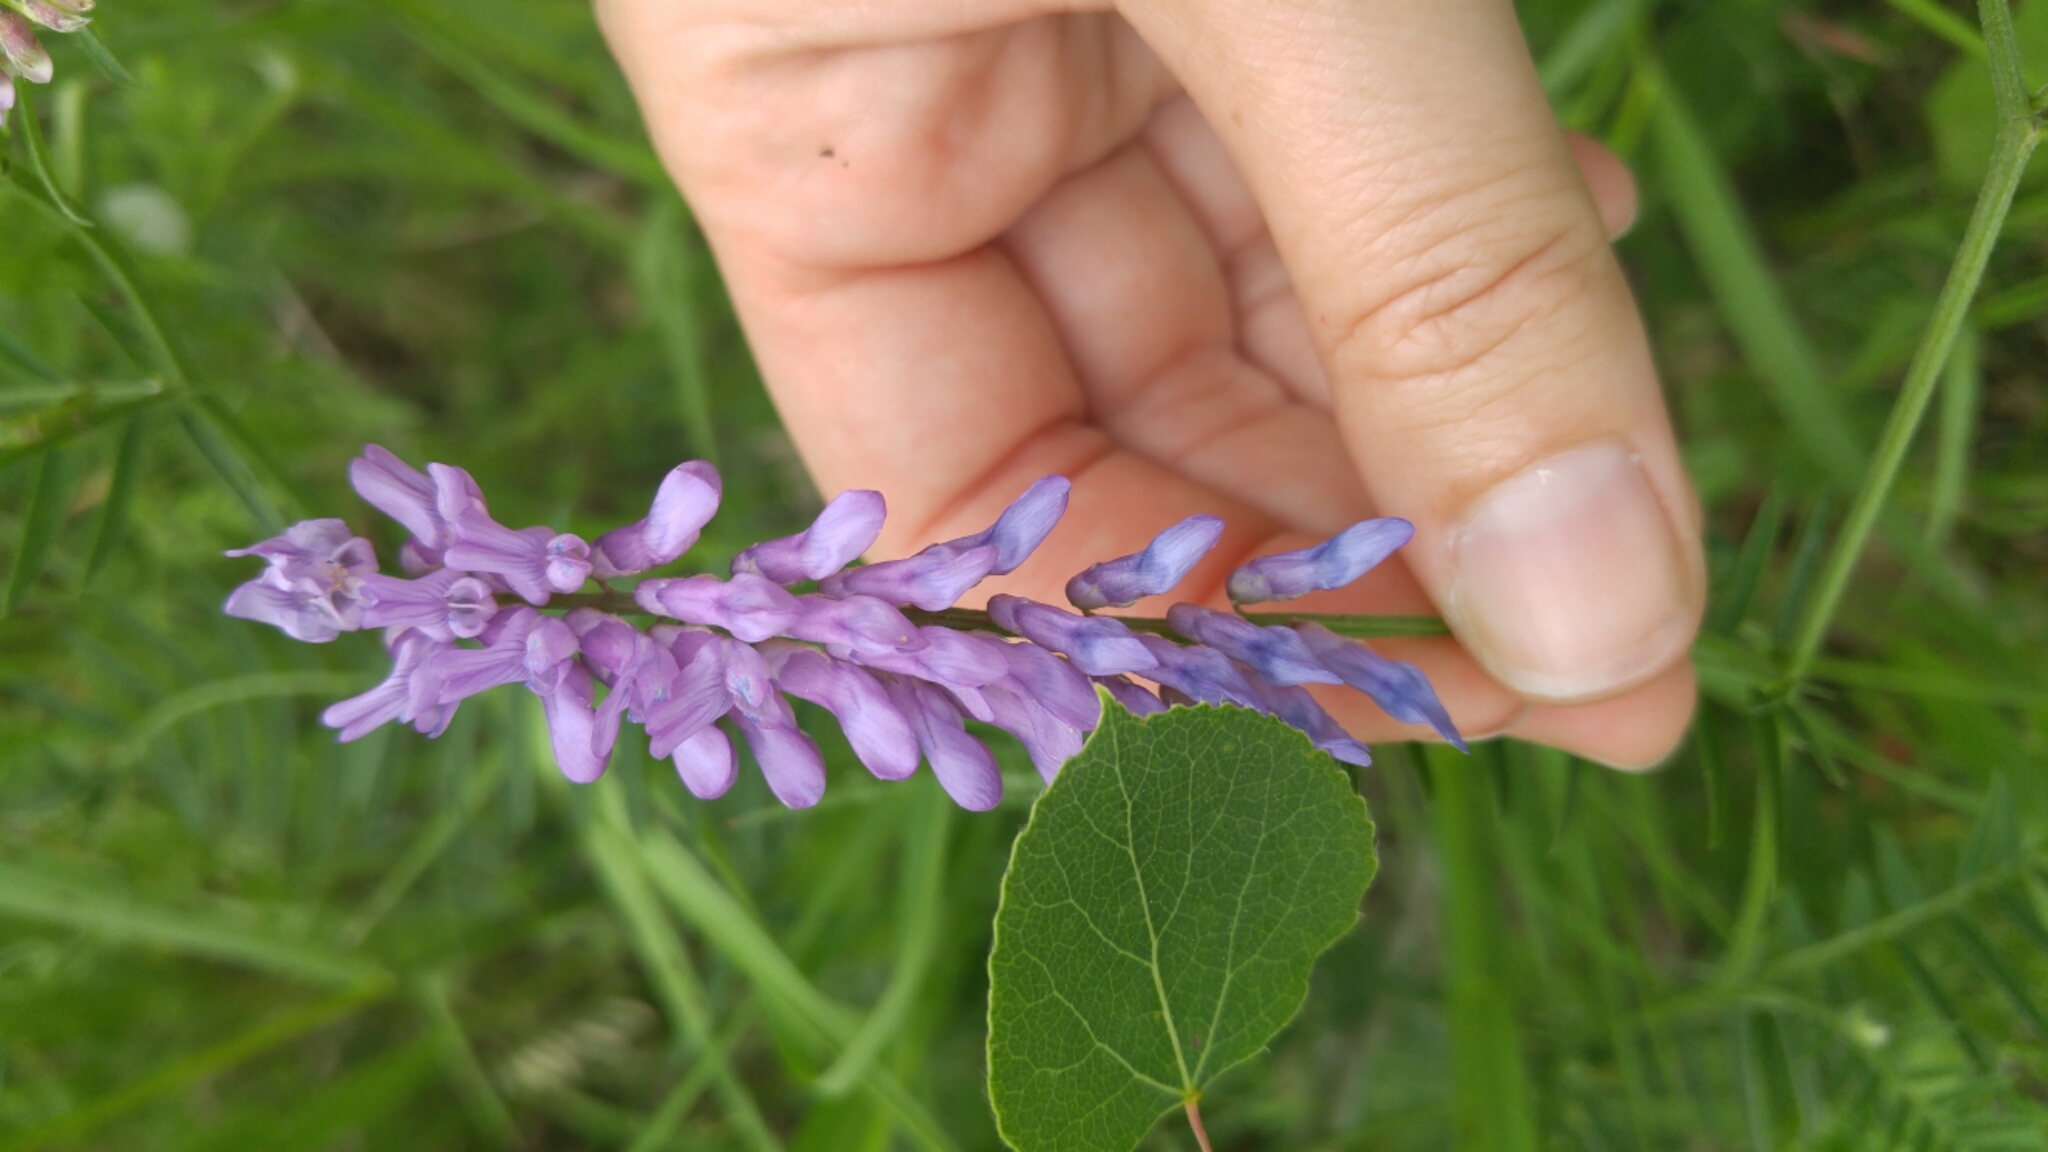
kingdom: Plantae
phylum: Tracheophyta
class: Magnoliopsida
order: Fabales
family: Fabaceae
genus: Vicia
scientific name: Vicia cracca
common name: Bird vetch
